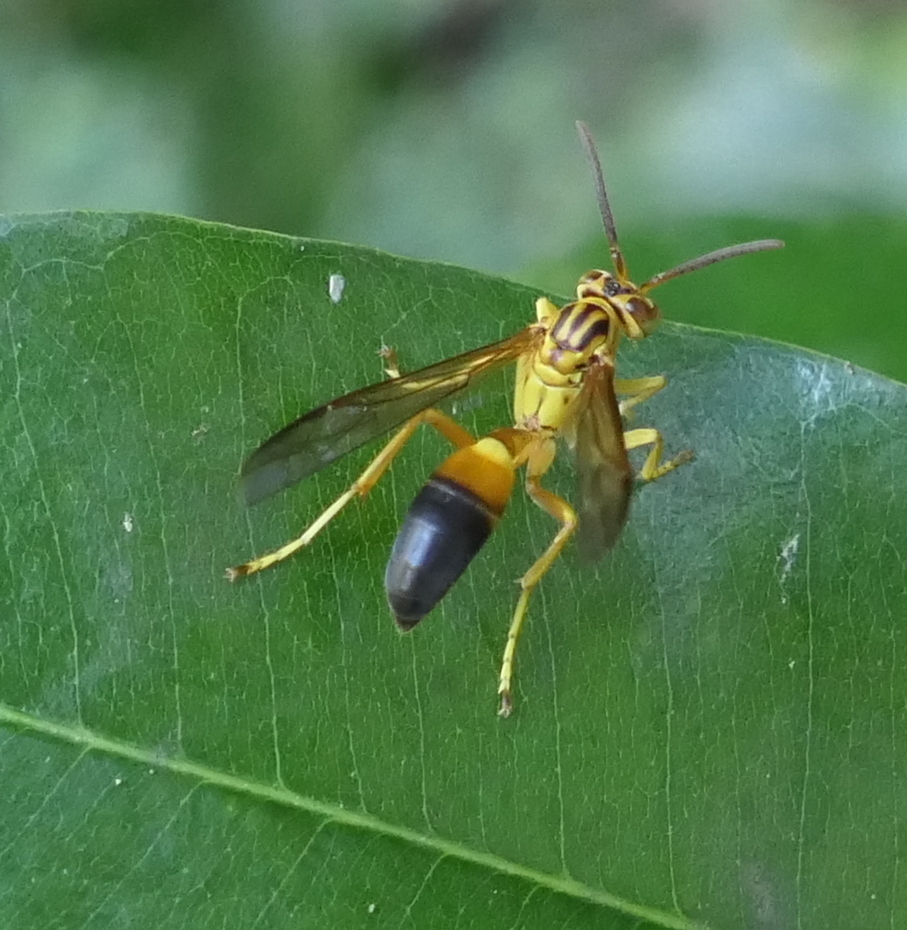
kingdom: Animalia
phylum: Arthropoda
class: Insecta
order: Hymenoptera
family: Vespidae
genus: Agelaia
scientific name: Agelaia pallipes
